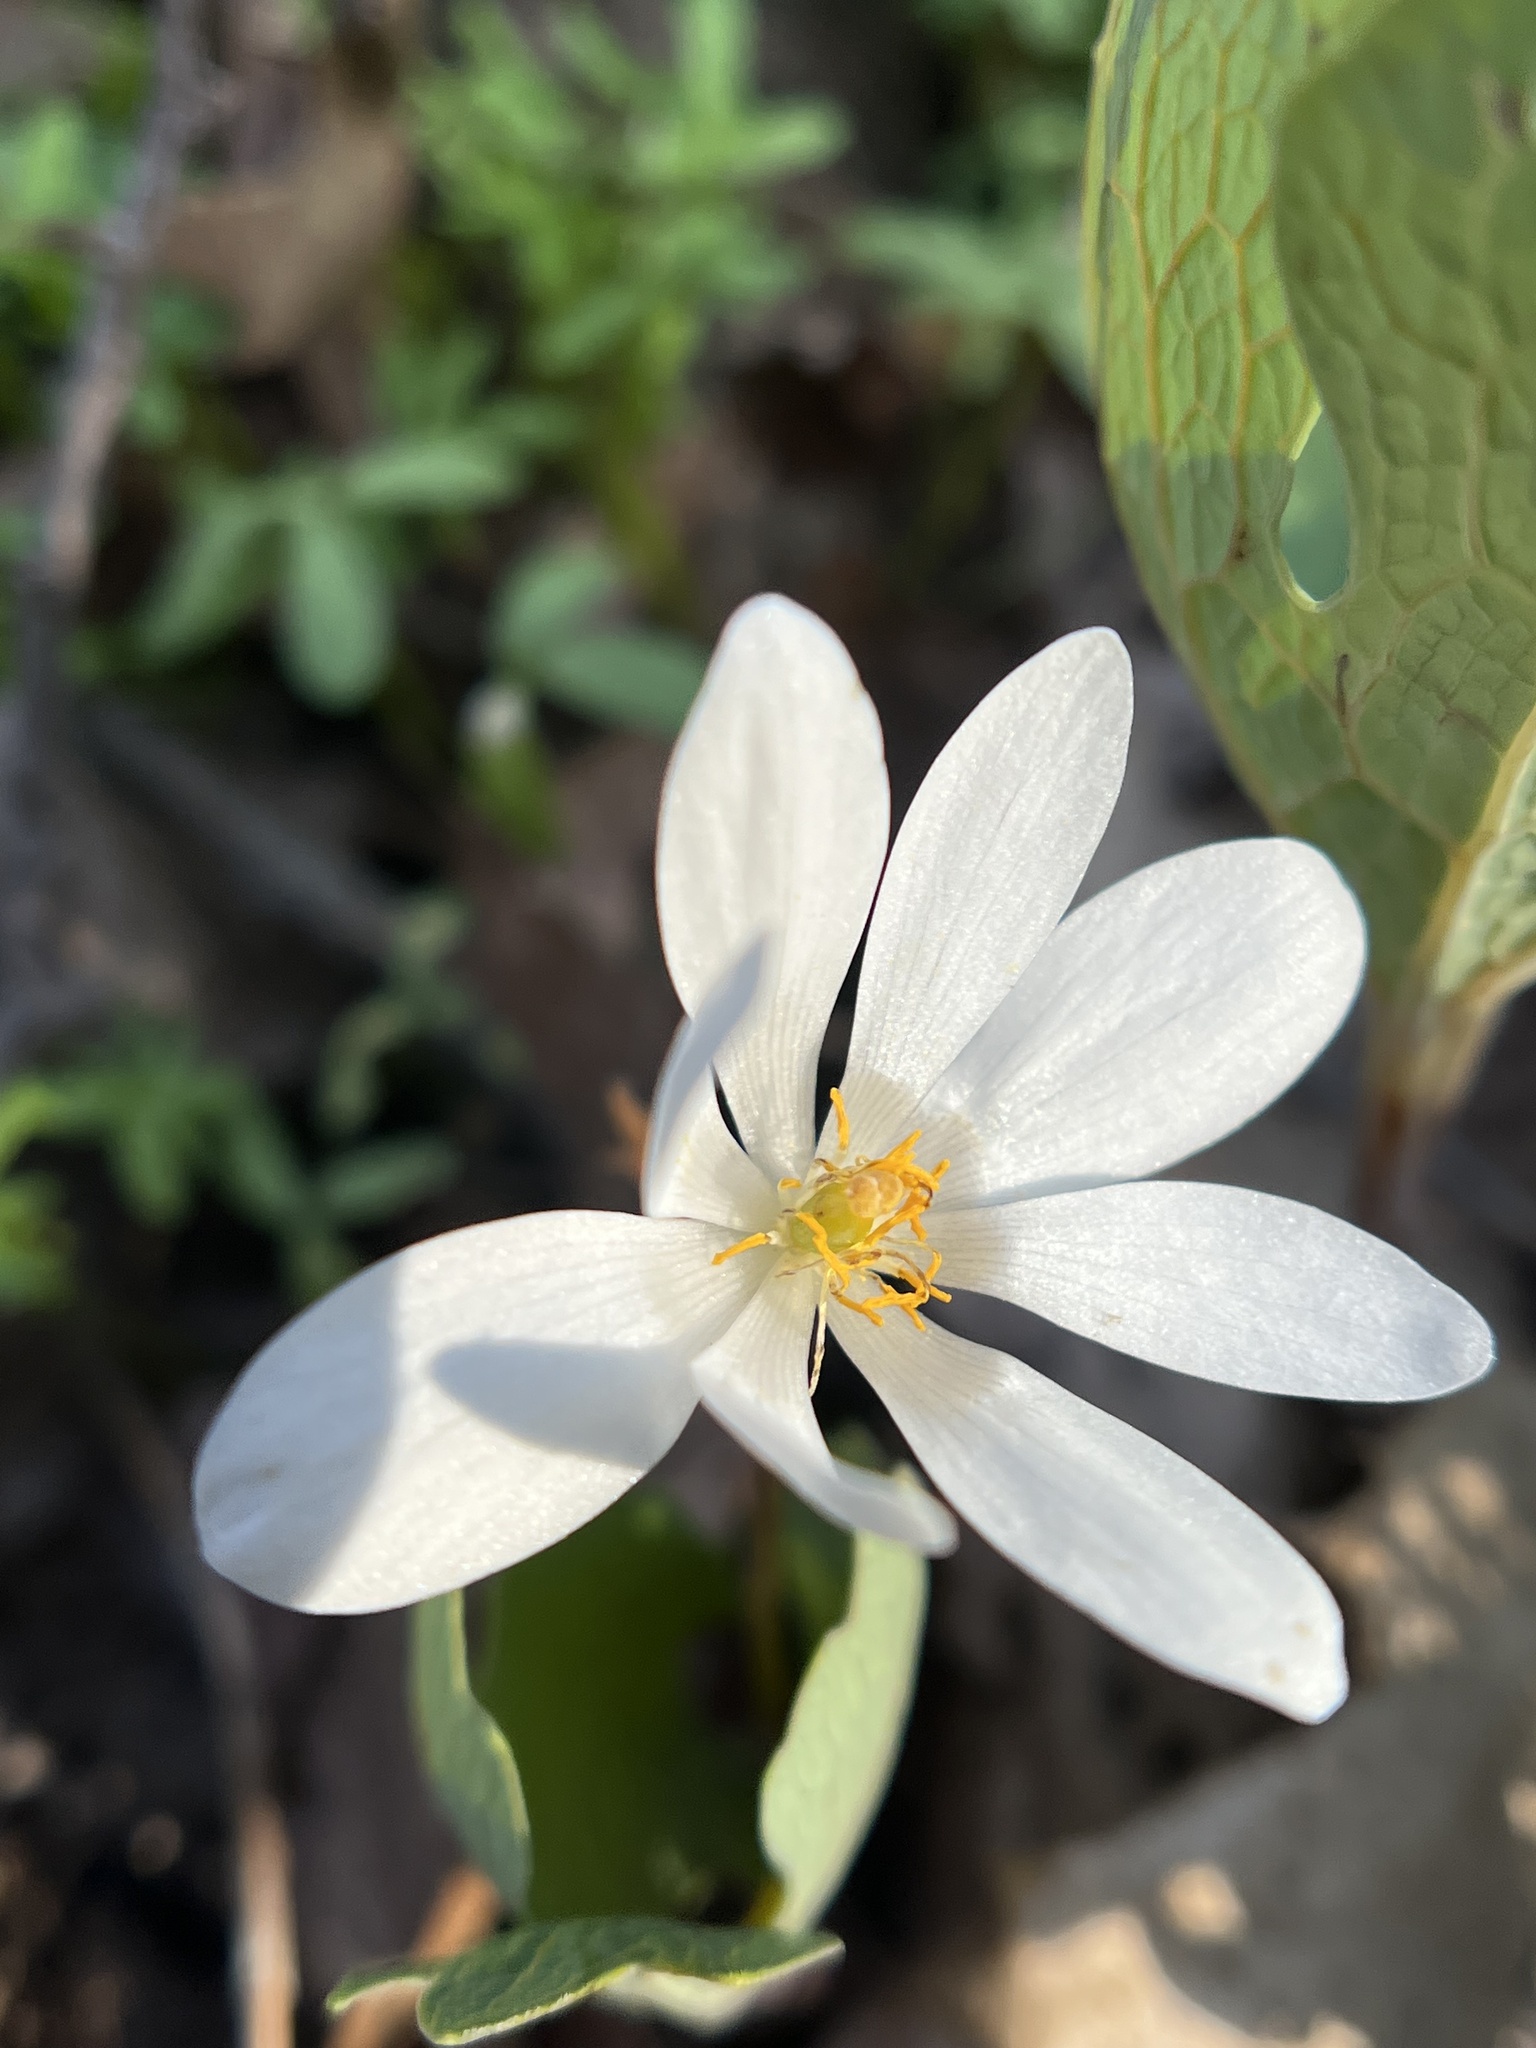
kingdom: Plantae
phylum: Tracheophyta
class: Magnoliopsida
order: Ranunculales
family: Papaveraceae
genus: Sanguinaria
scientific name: Sanguinaria canadensis
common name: Bloodroot
